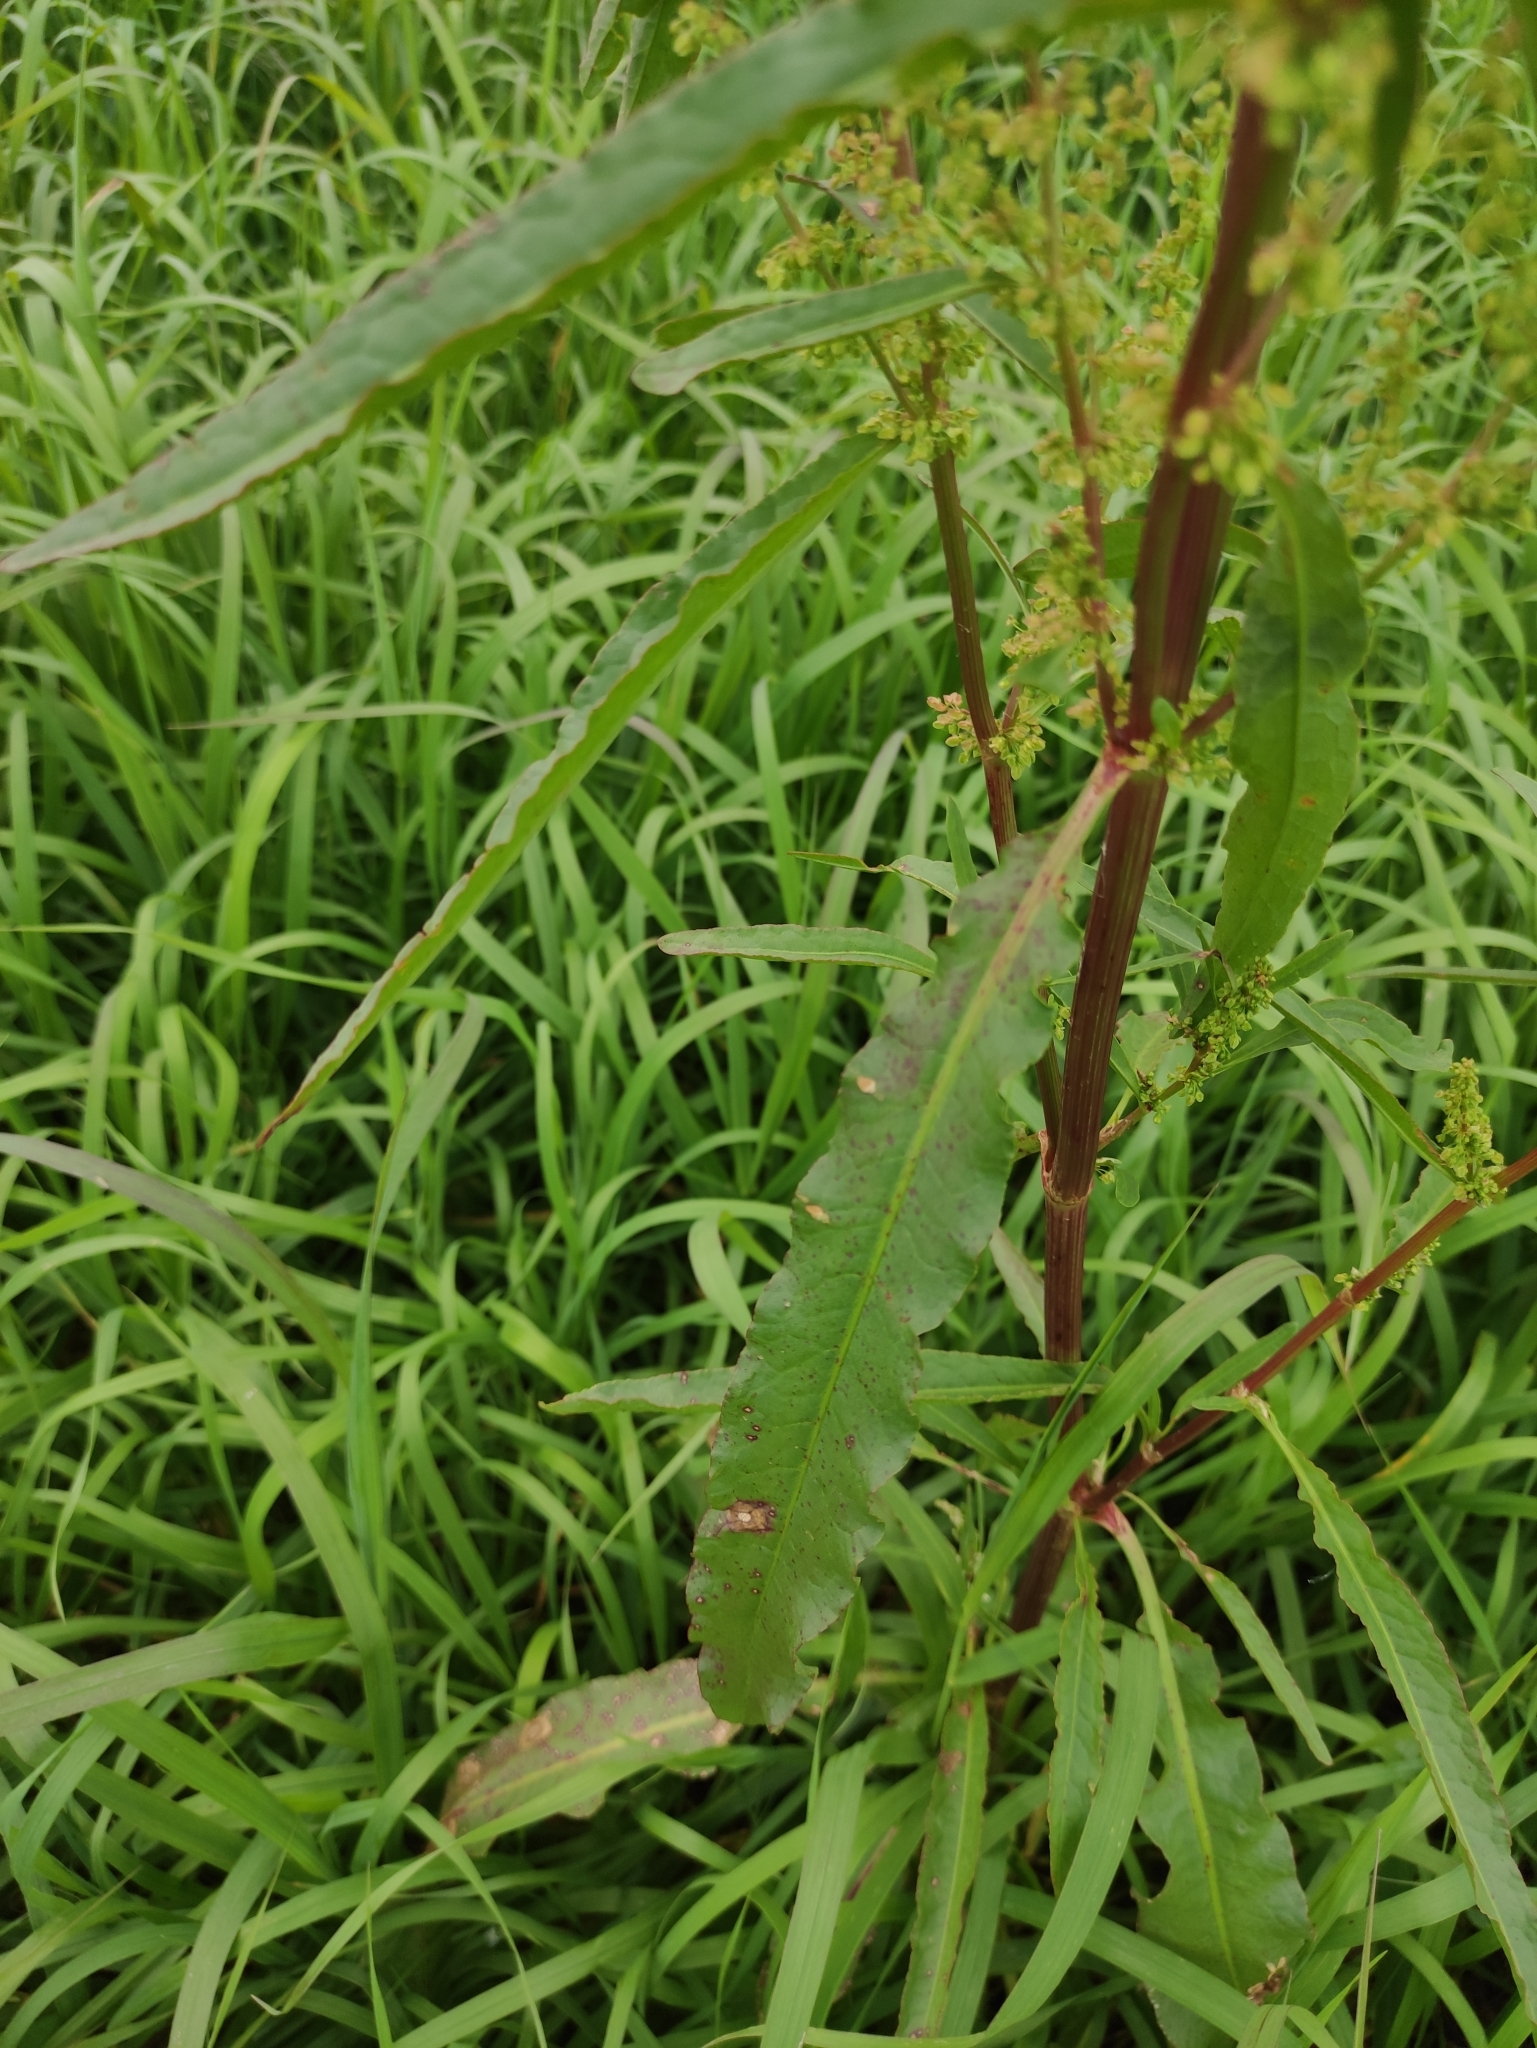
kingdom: Plantae
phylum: Tracheophyta
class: Magnoliopsida
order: Caryophyllales
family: Polygonaceae
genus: Rumex
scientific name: Rumex pseudonatronatus
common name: Field dock
